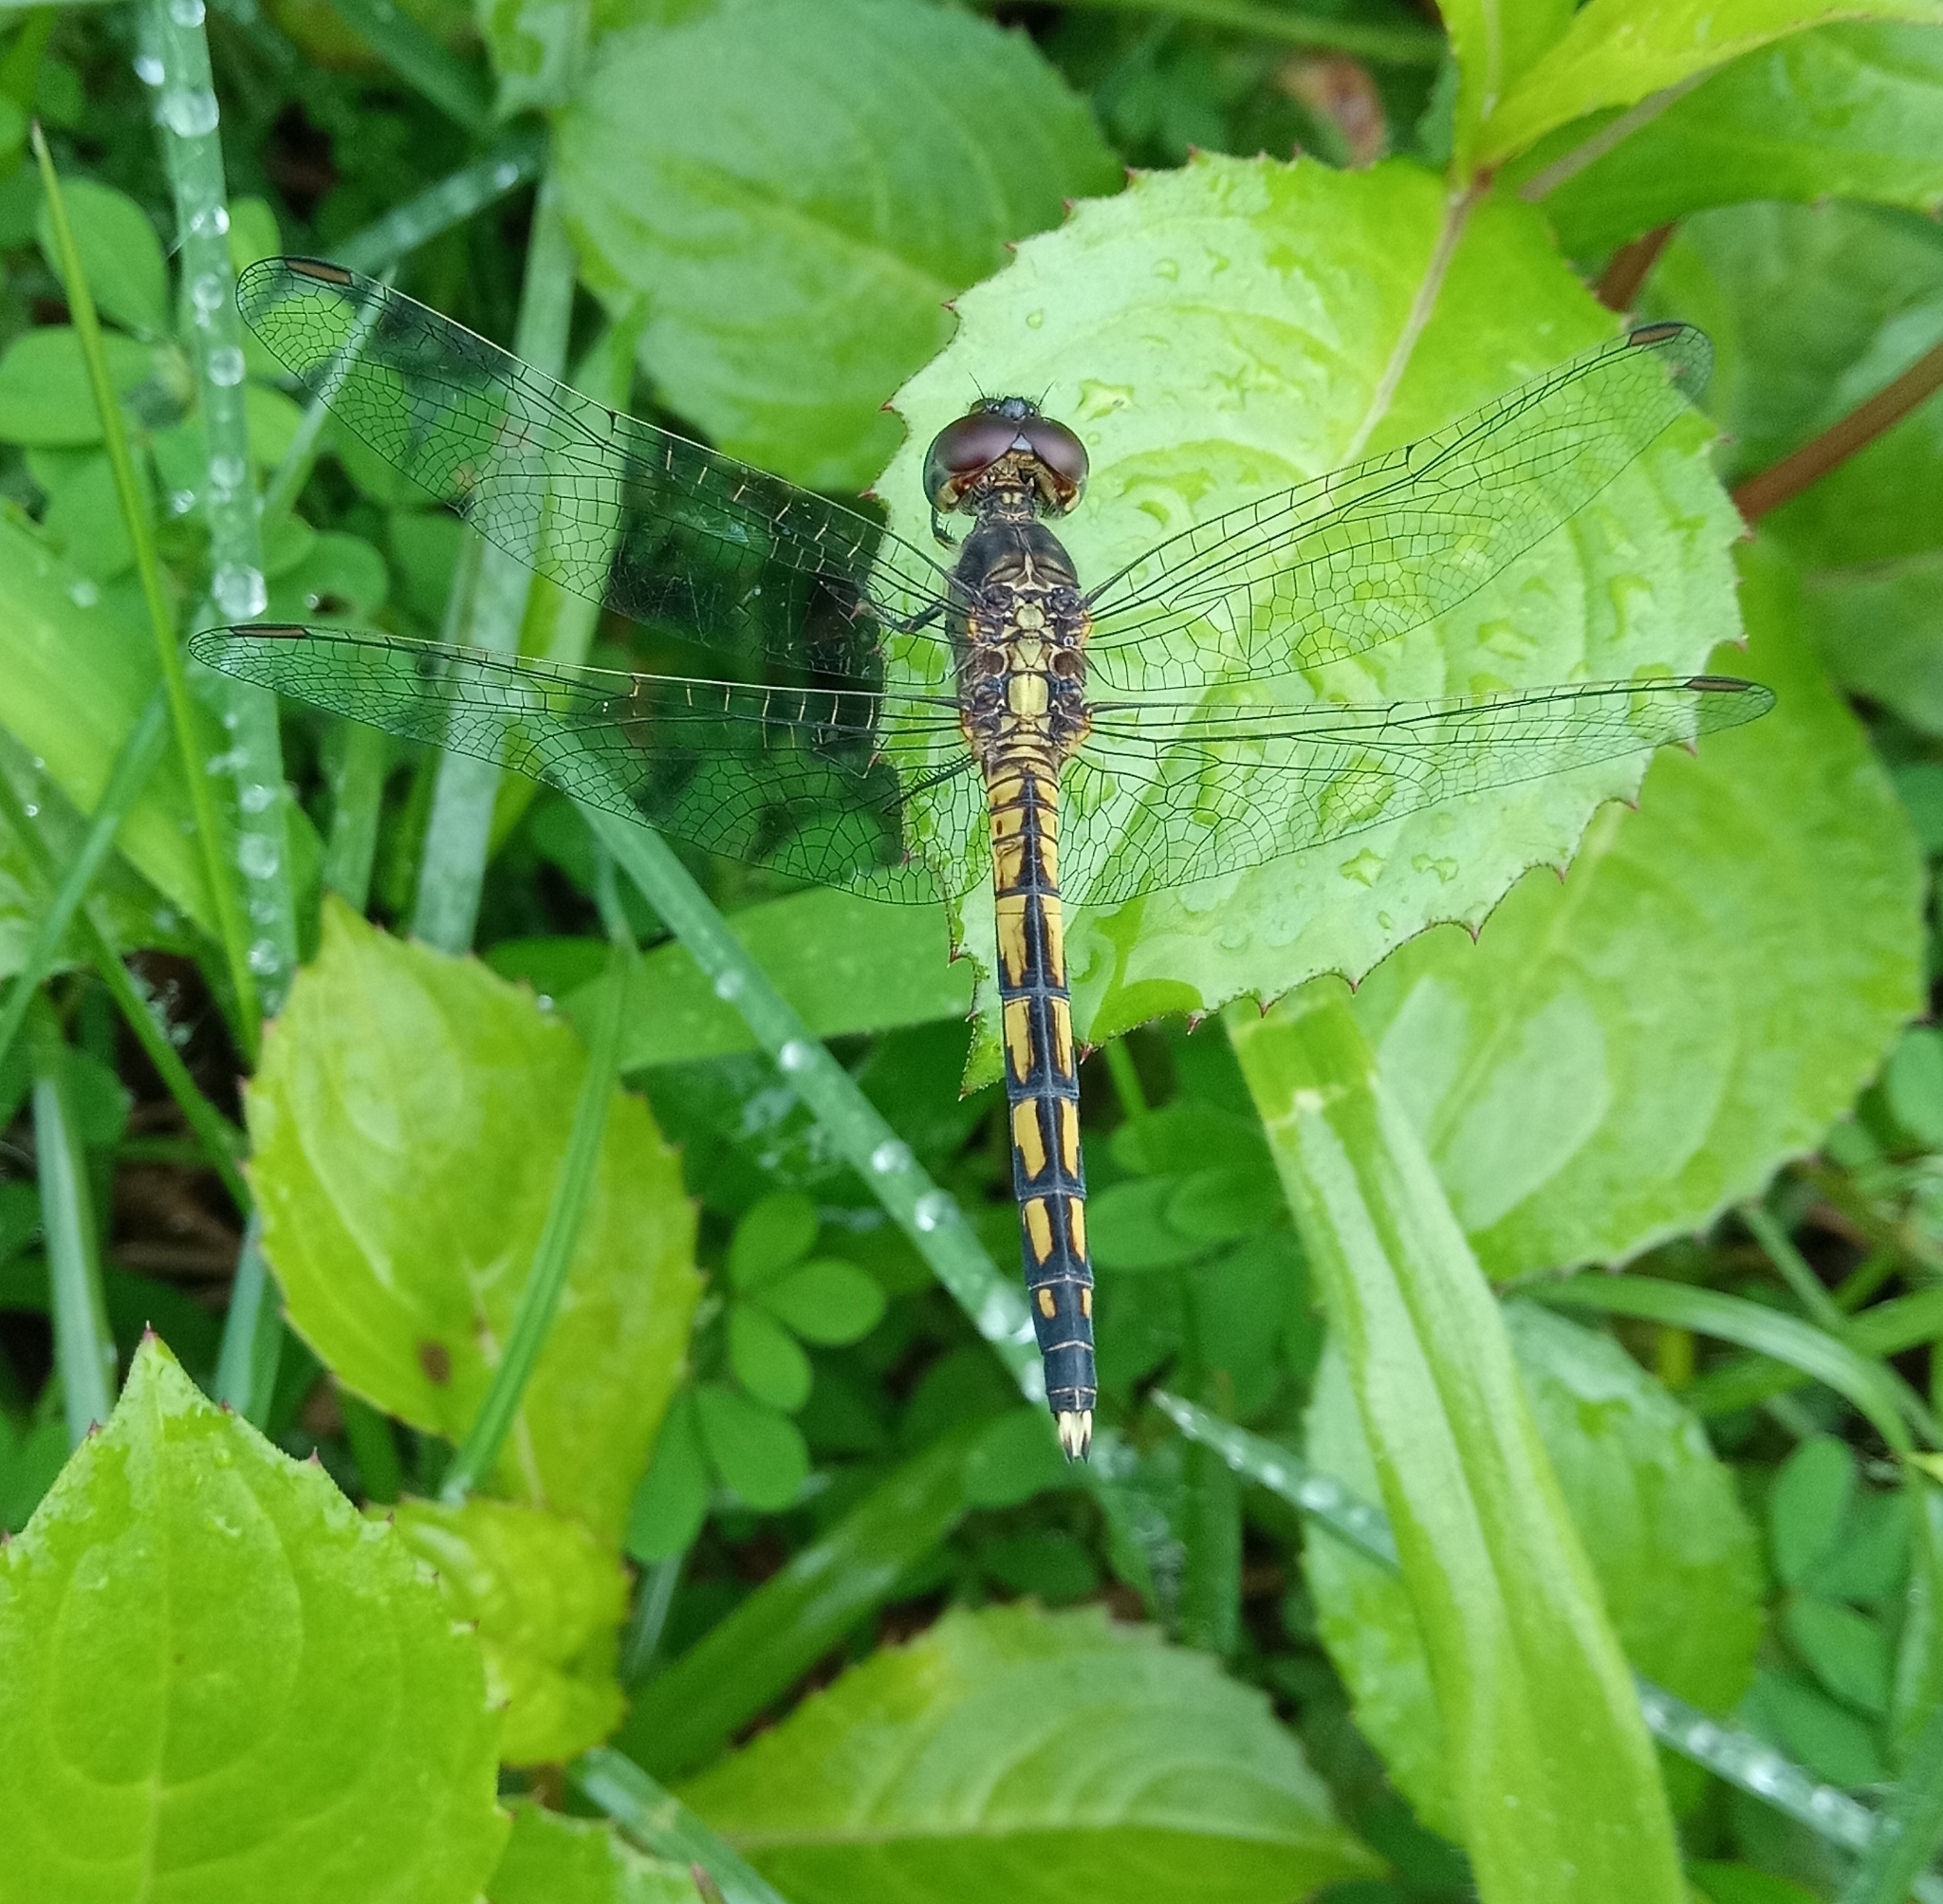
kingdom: Animalia
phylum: Arthropoda
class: Insecta
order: Odonata
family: Libellulidae
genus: Indothemis
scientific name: Indothemis carnatica
